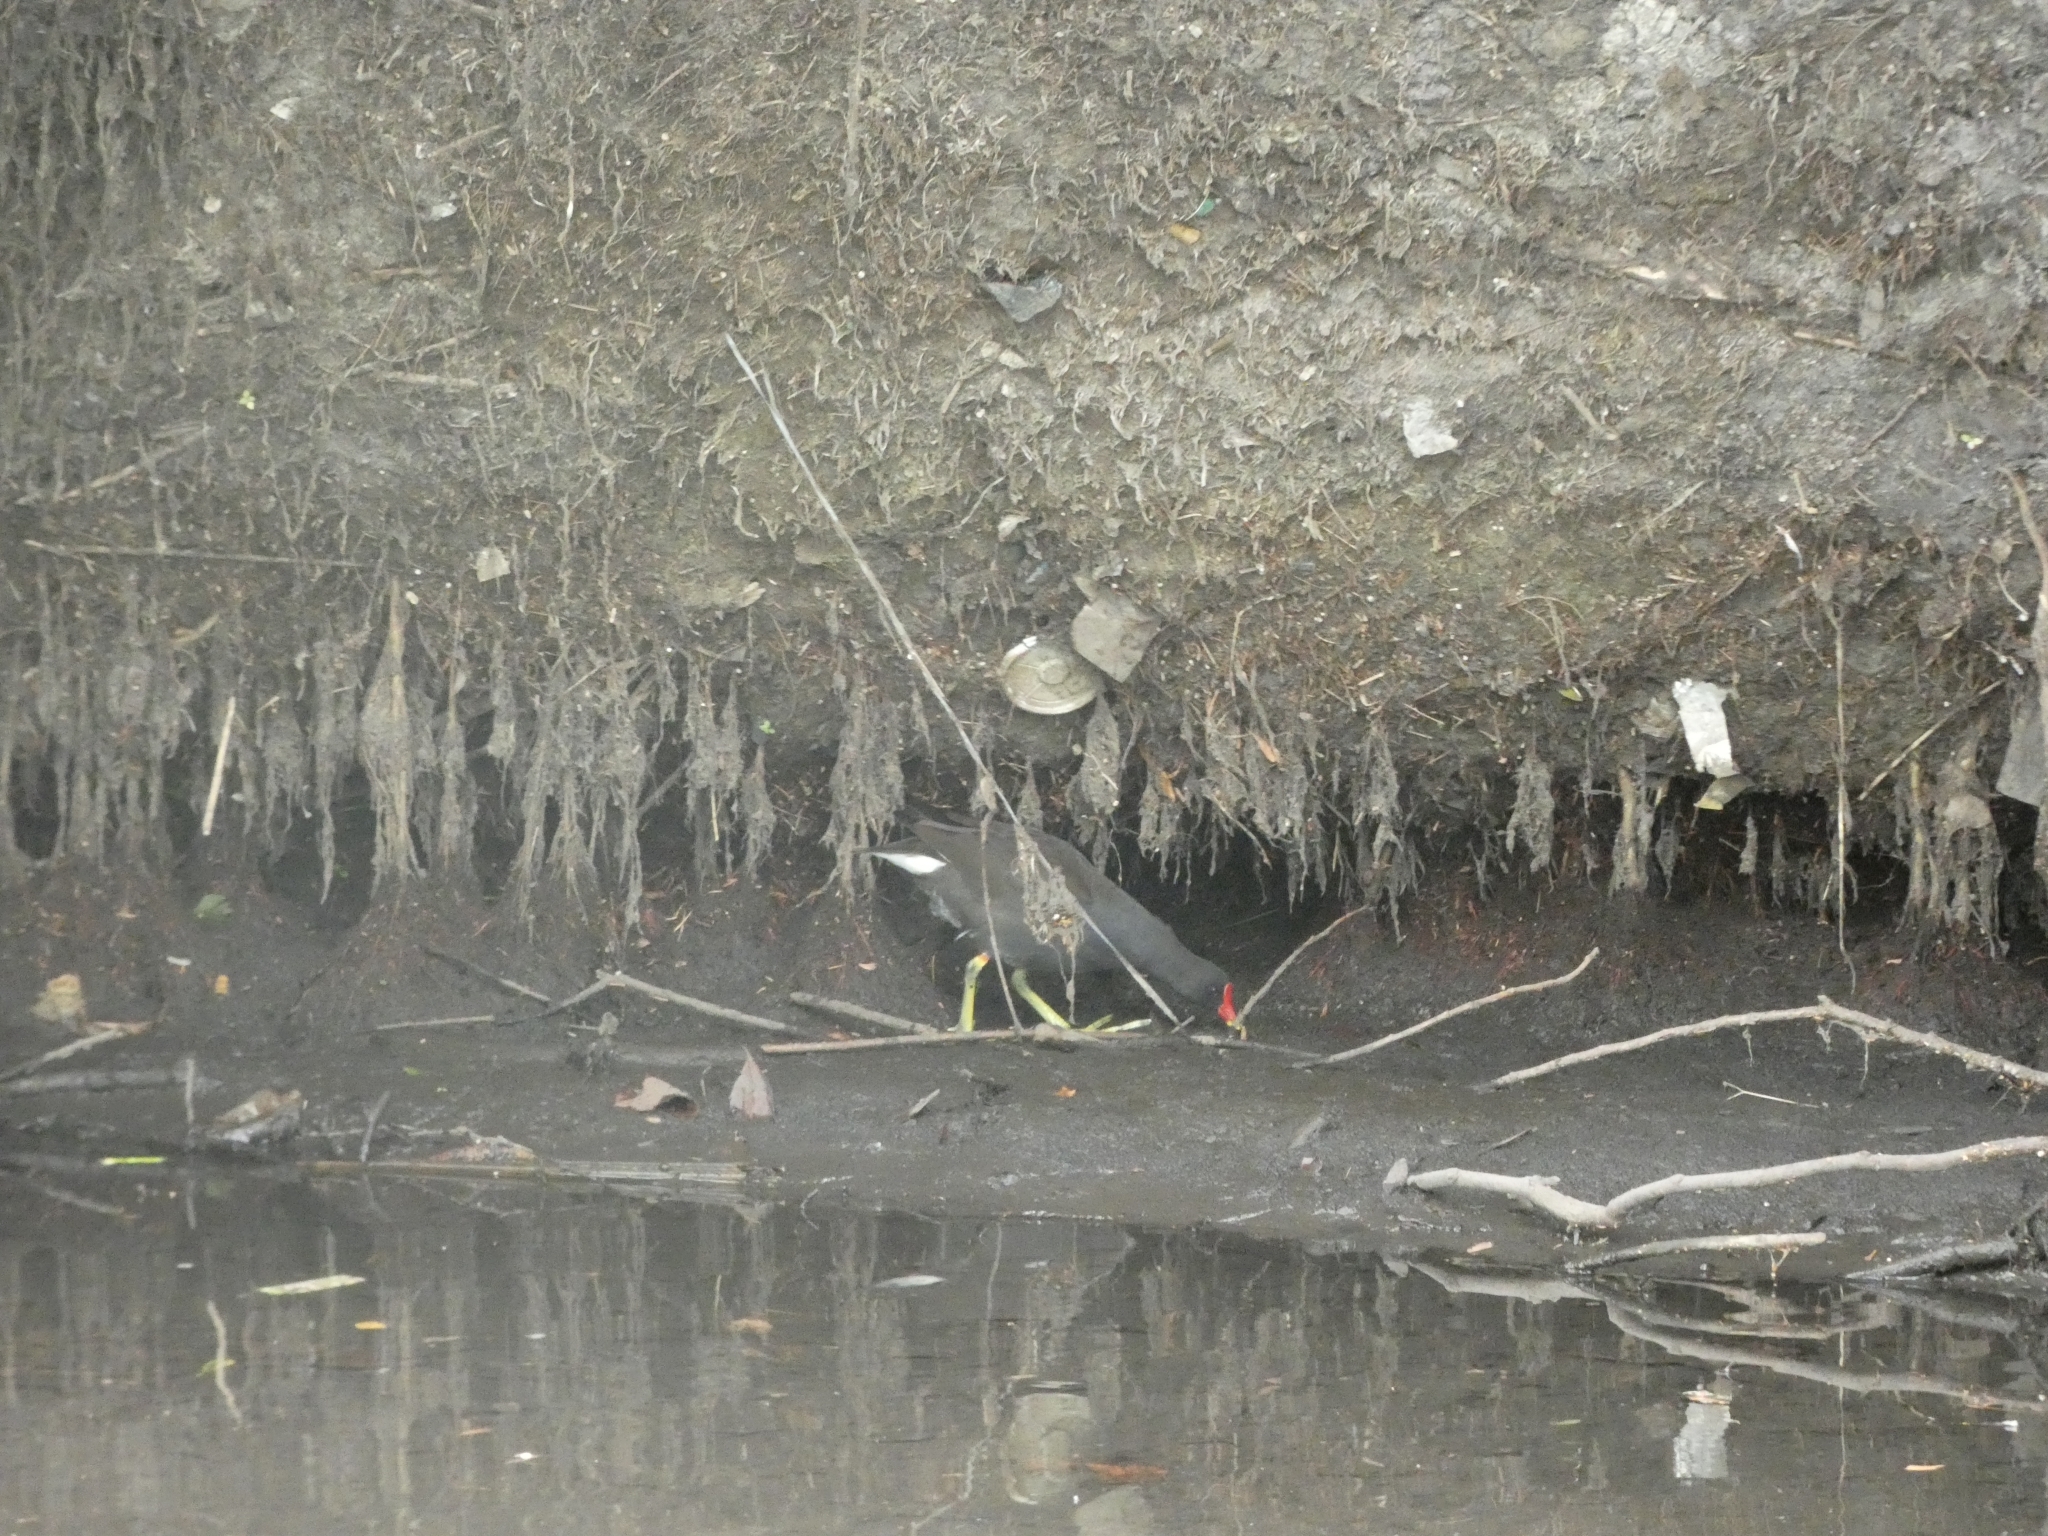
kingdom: Animalia
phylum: Chordata
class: Aves
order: Gruiformes
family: Rallidae
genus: Gallinula
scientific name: Gallinula chloropus
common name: Common moorhen
